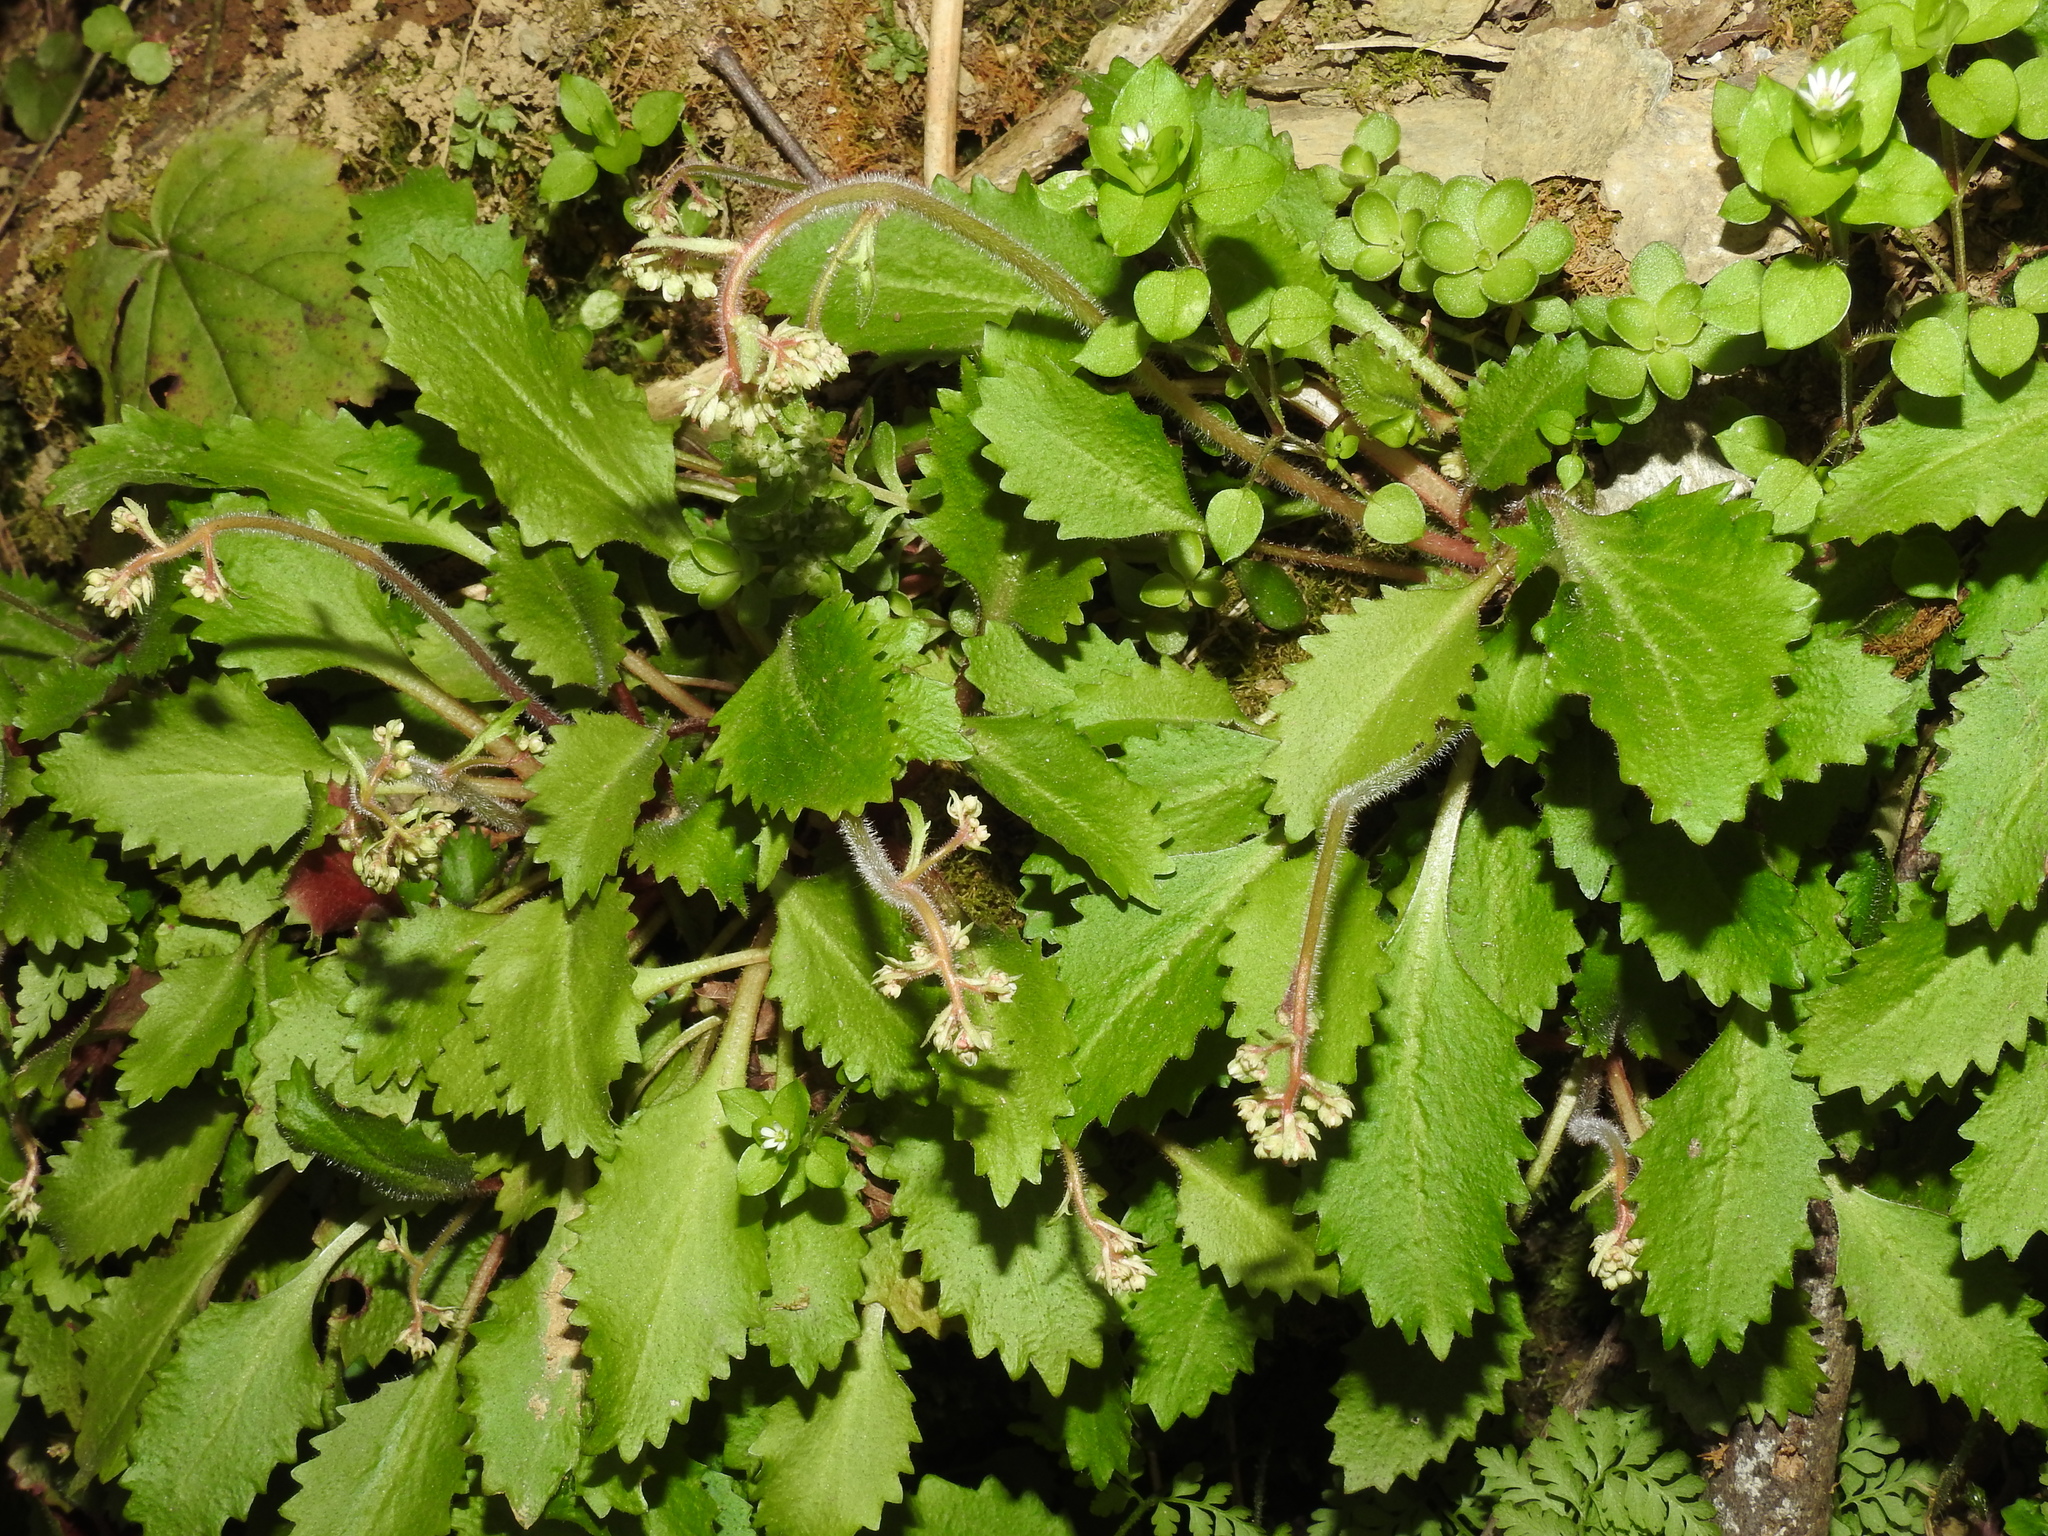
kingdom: Plantae
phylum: Tracheophyta
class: Magnoliopsida
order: Saxifragales
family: Saxifragaceae
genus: Micranthes
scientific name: Micranthes petiolaris
